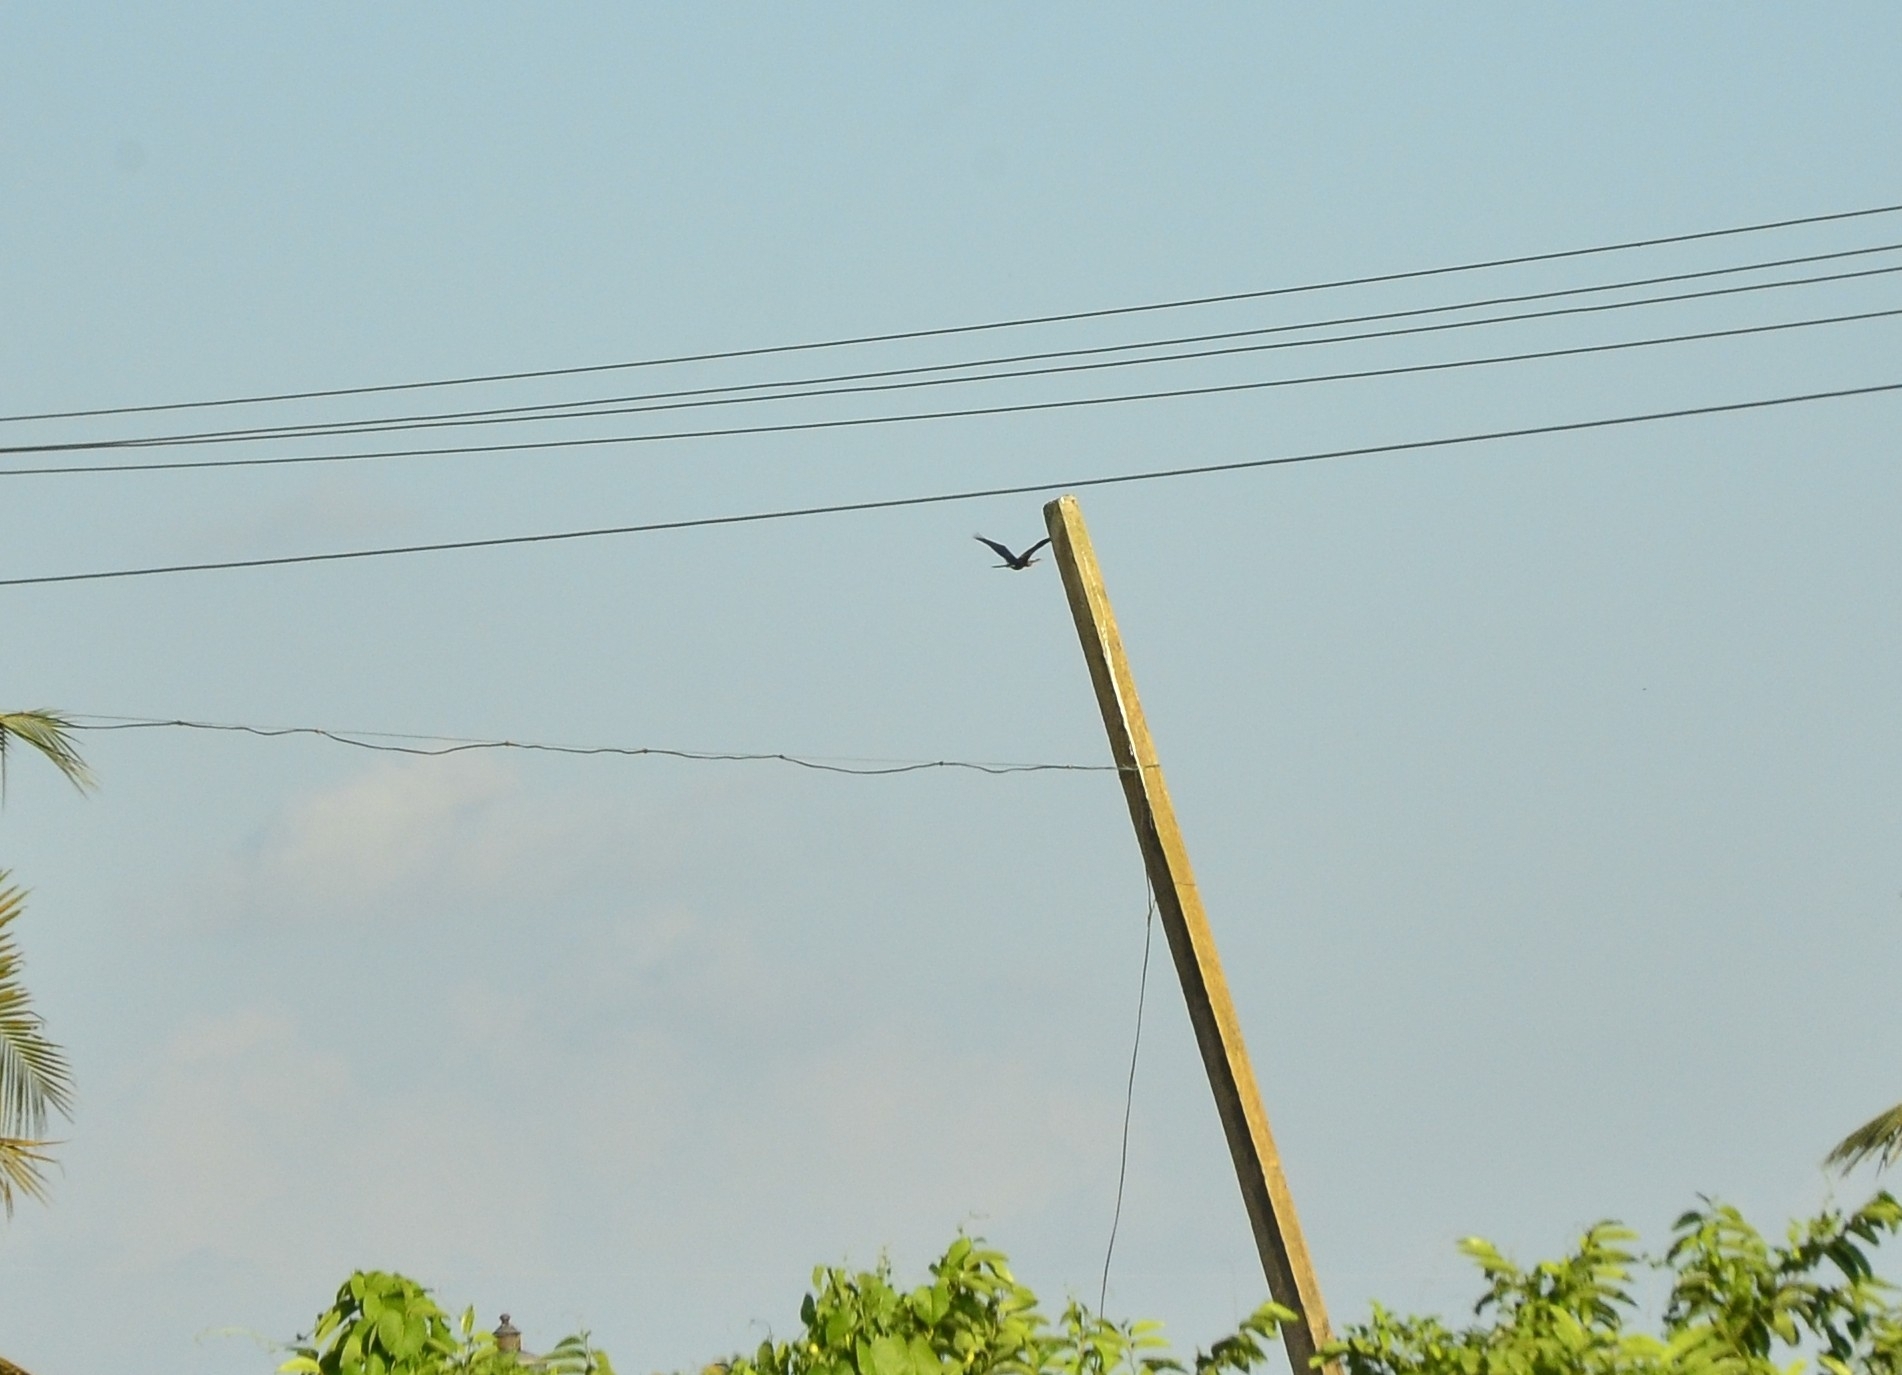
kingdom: Animalia
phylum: Chordata
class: Aves
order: Suliformes
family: Anhingidae
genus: Anhinga
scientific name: Anhinga melanogaster
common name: Oriental darter
